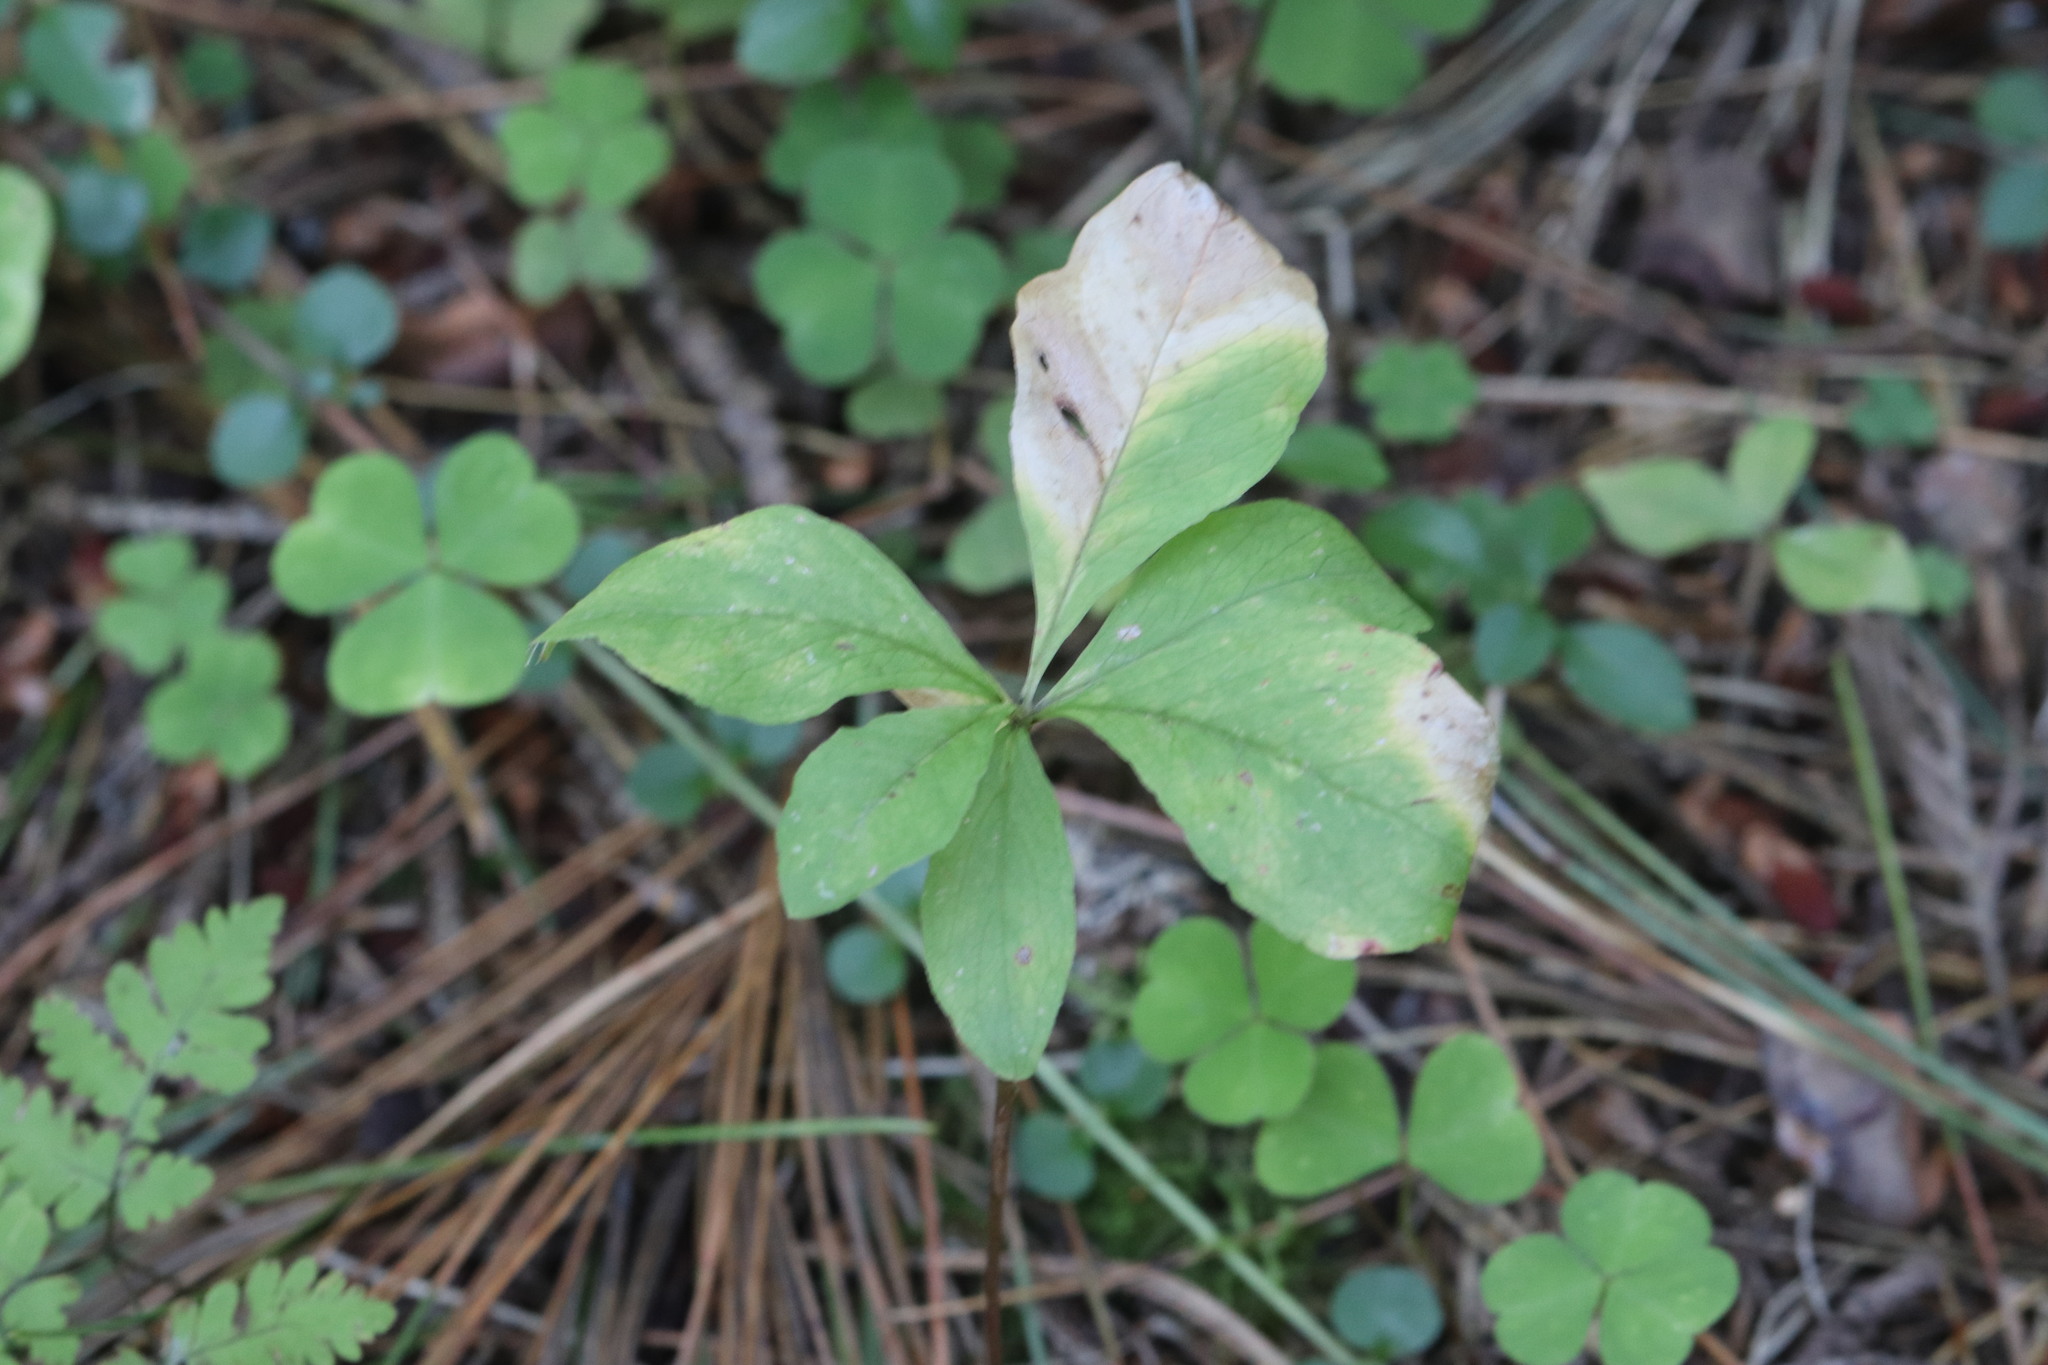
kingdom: Plantae
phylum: Tracheophyta
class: Magnoliopsida
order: Ericales
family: Primulaceae
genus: Lysimachia
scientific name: Lysimachia europaea
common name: Arctic starflower
